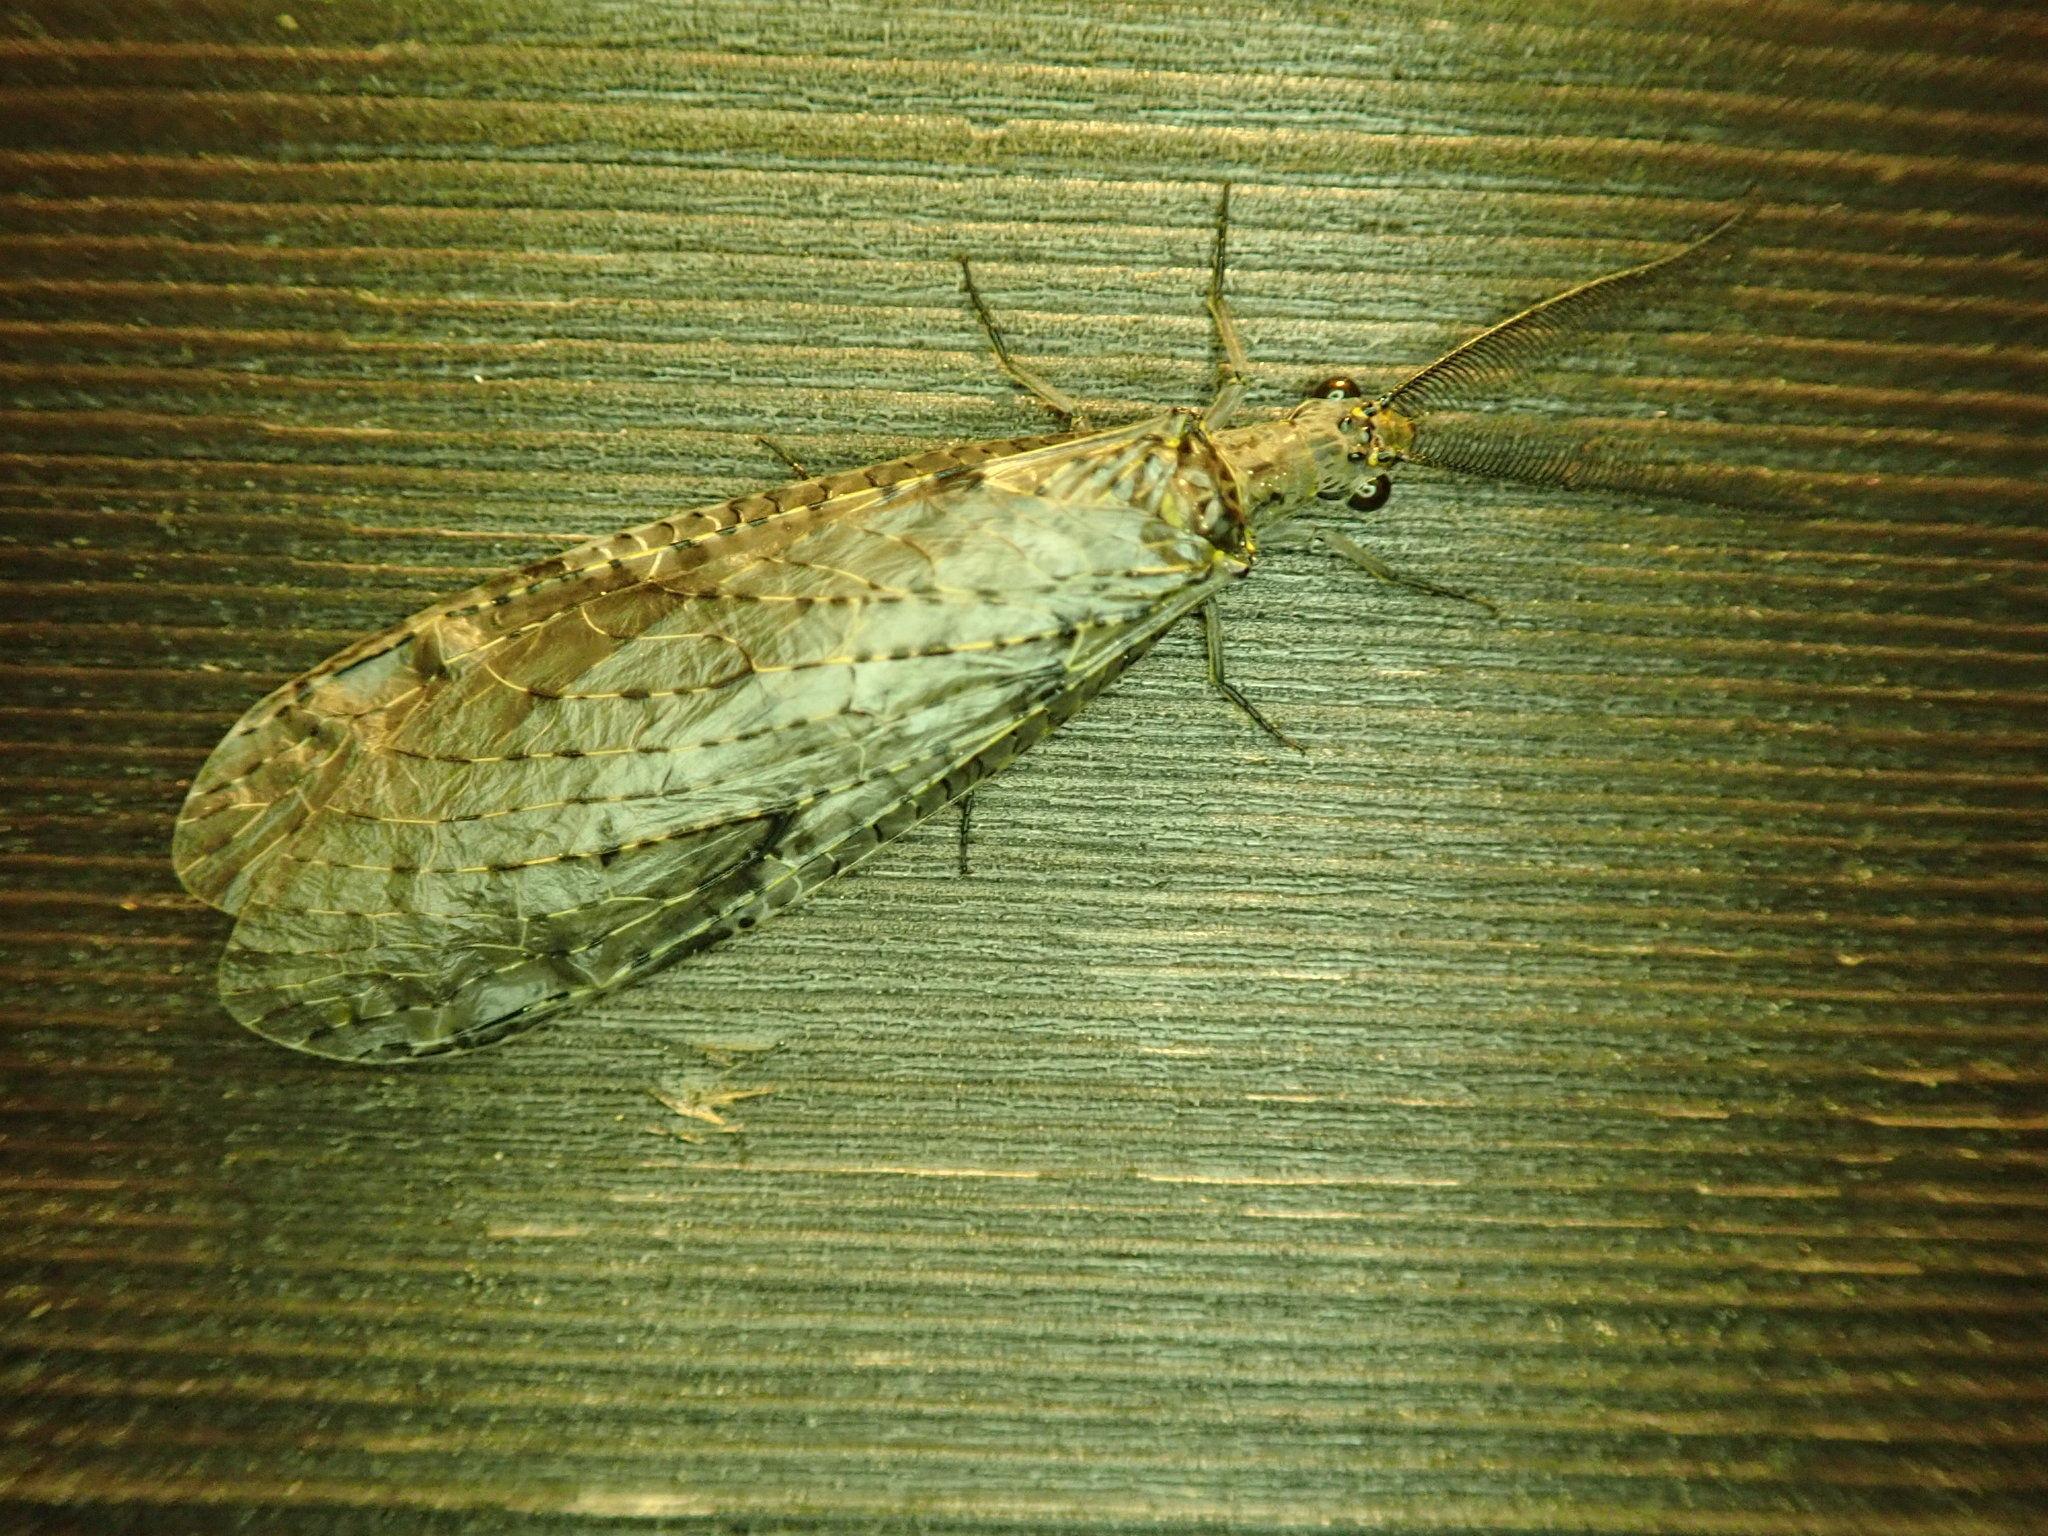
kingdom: Animalia
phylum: Arthropoda
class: Insecta
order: Megaloptera
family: Corydalidae
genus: Chauliodes
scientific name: Chauliodes rastricornis
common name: Spring fishfly
